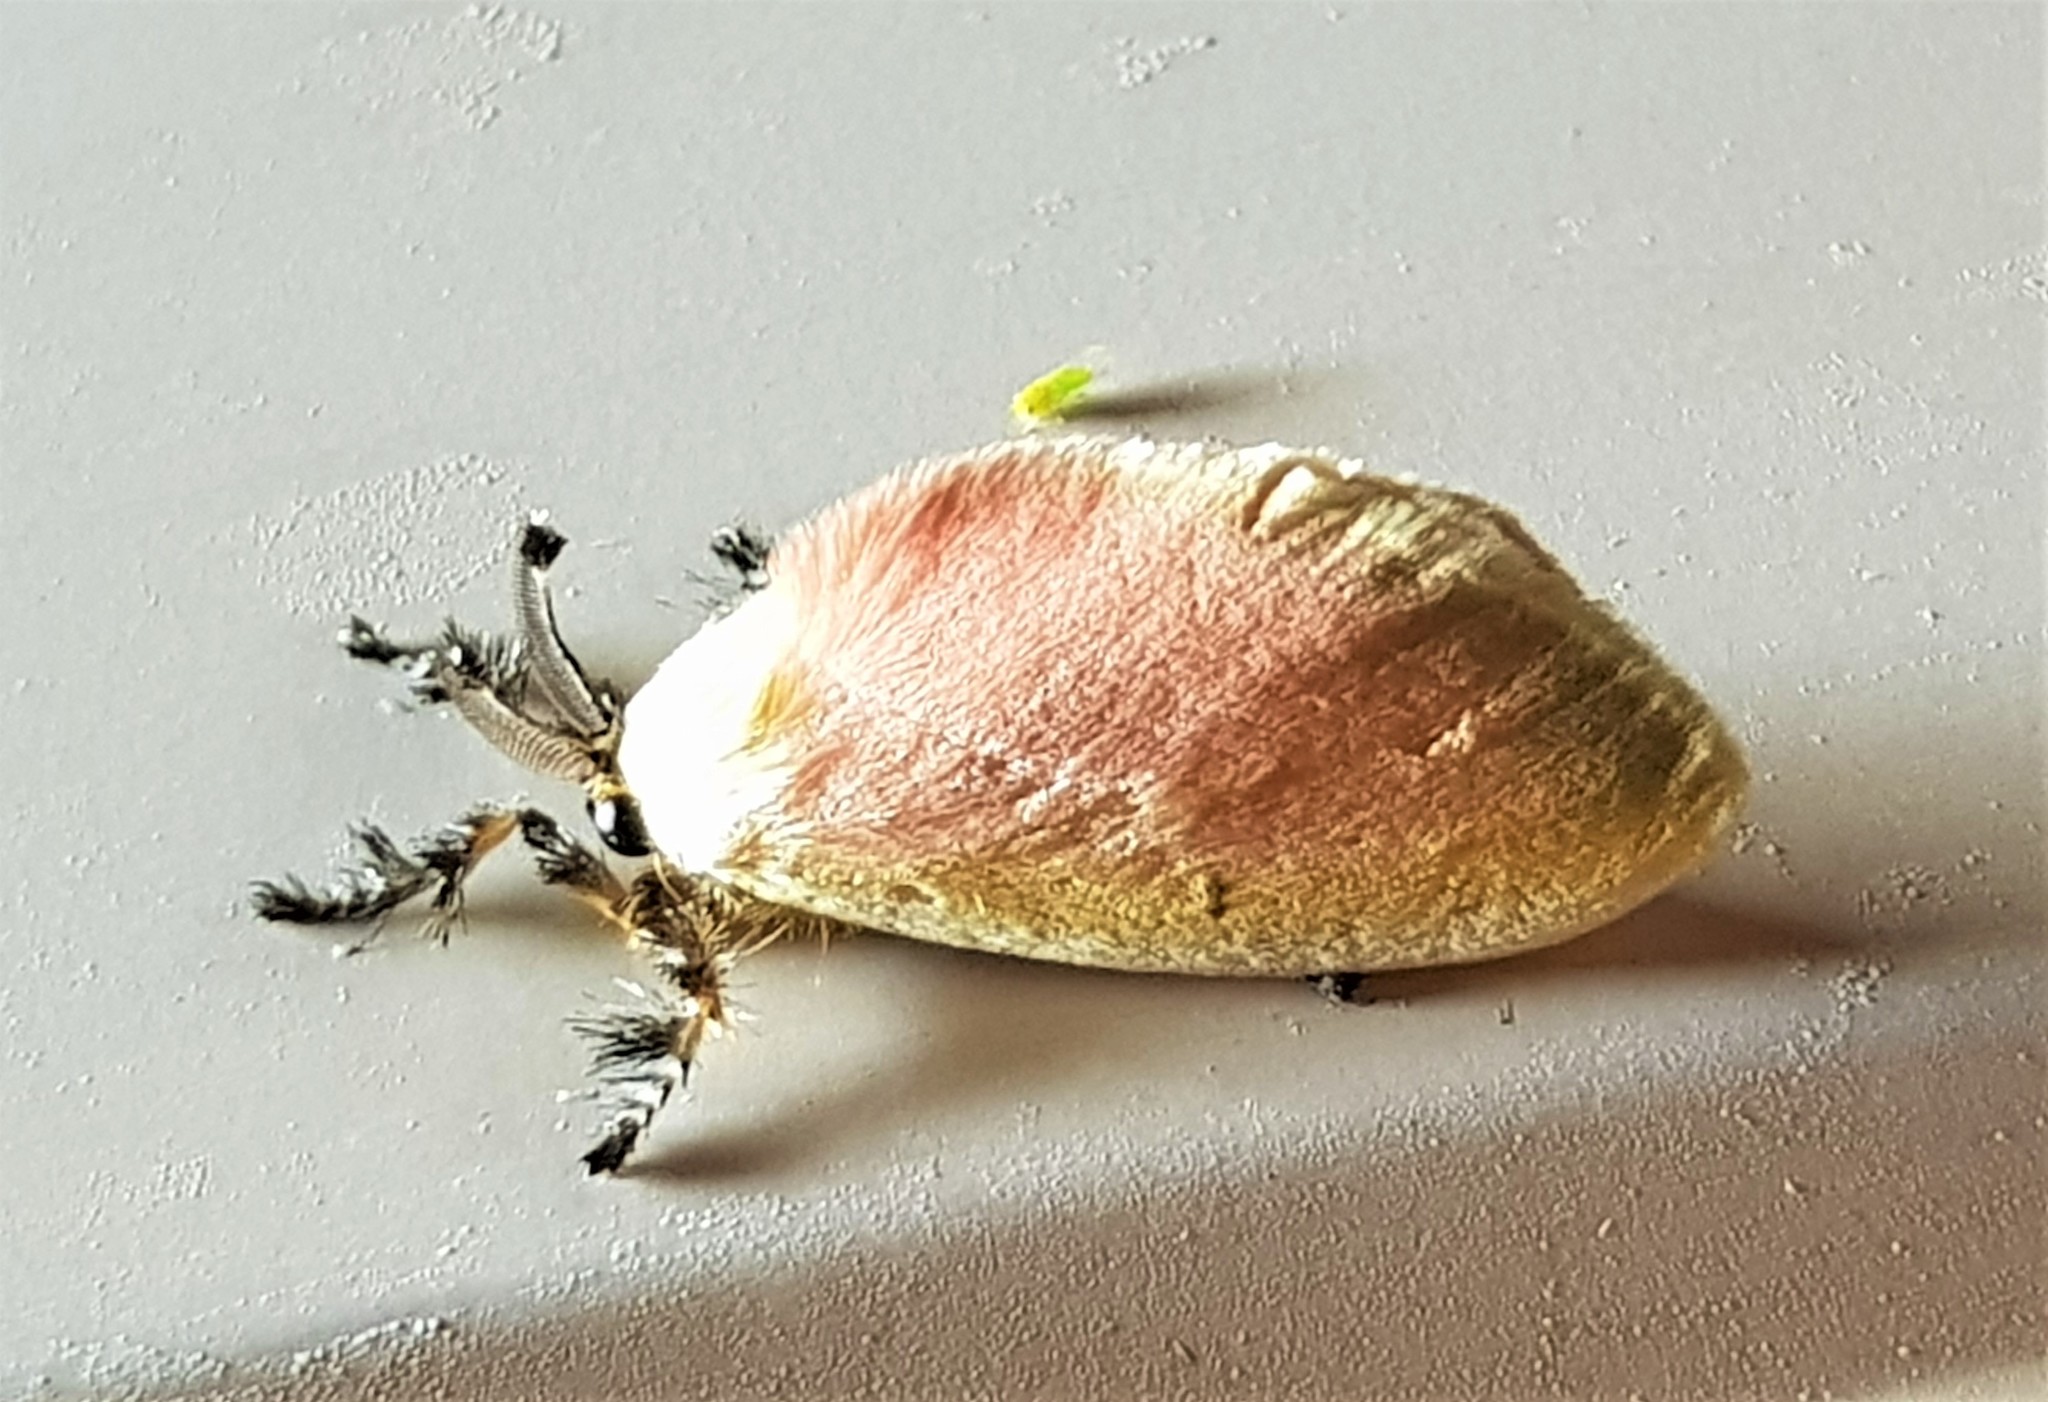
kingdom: Animalia
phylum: Arthropoda
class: Insecta
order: Lepidoptera
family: Dalceridae
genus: Dalcera
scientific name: Dalcera abrasa
